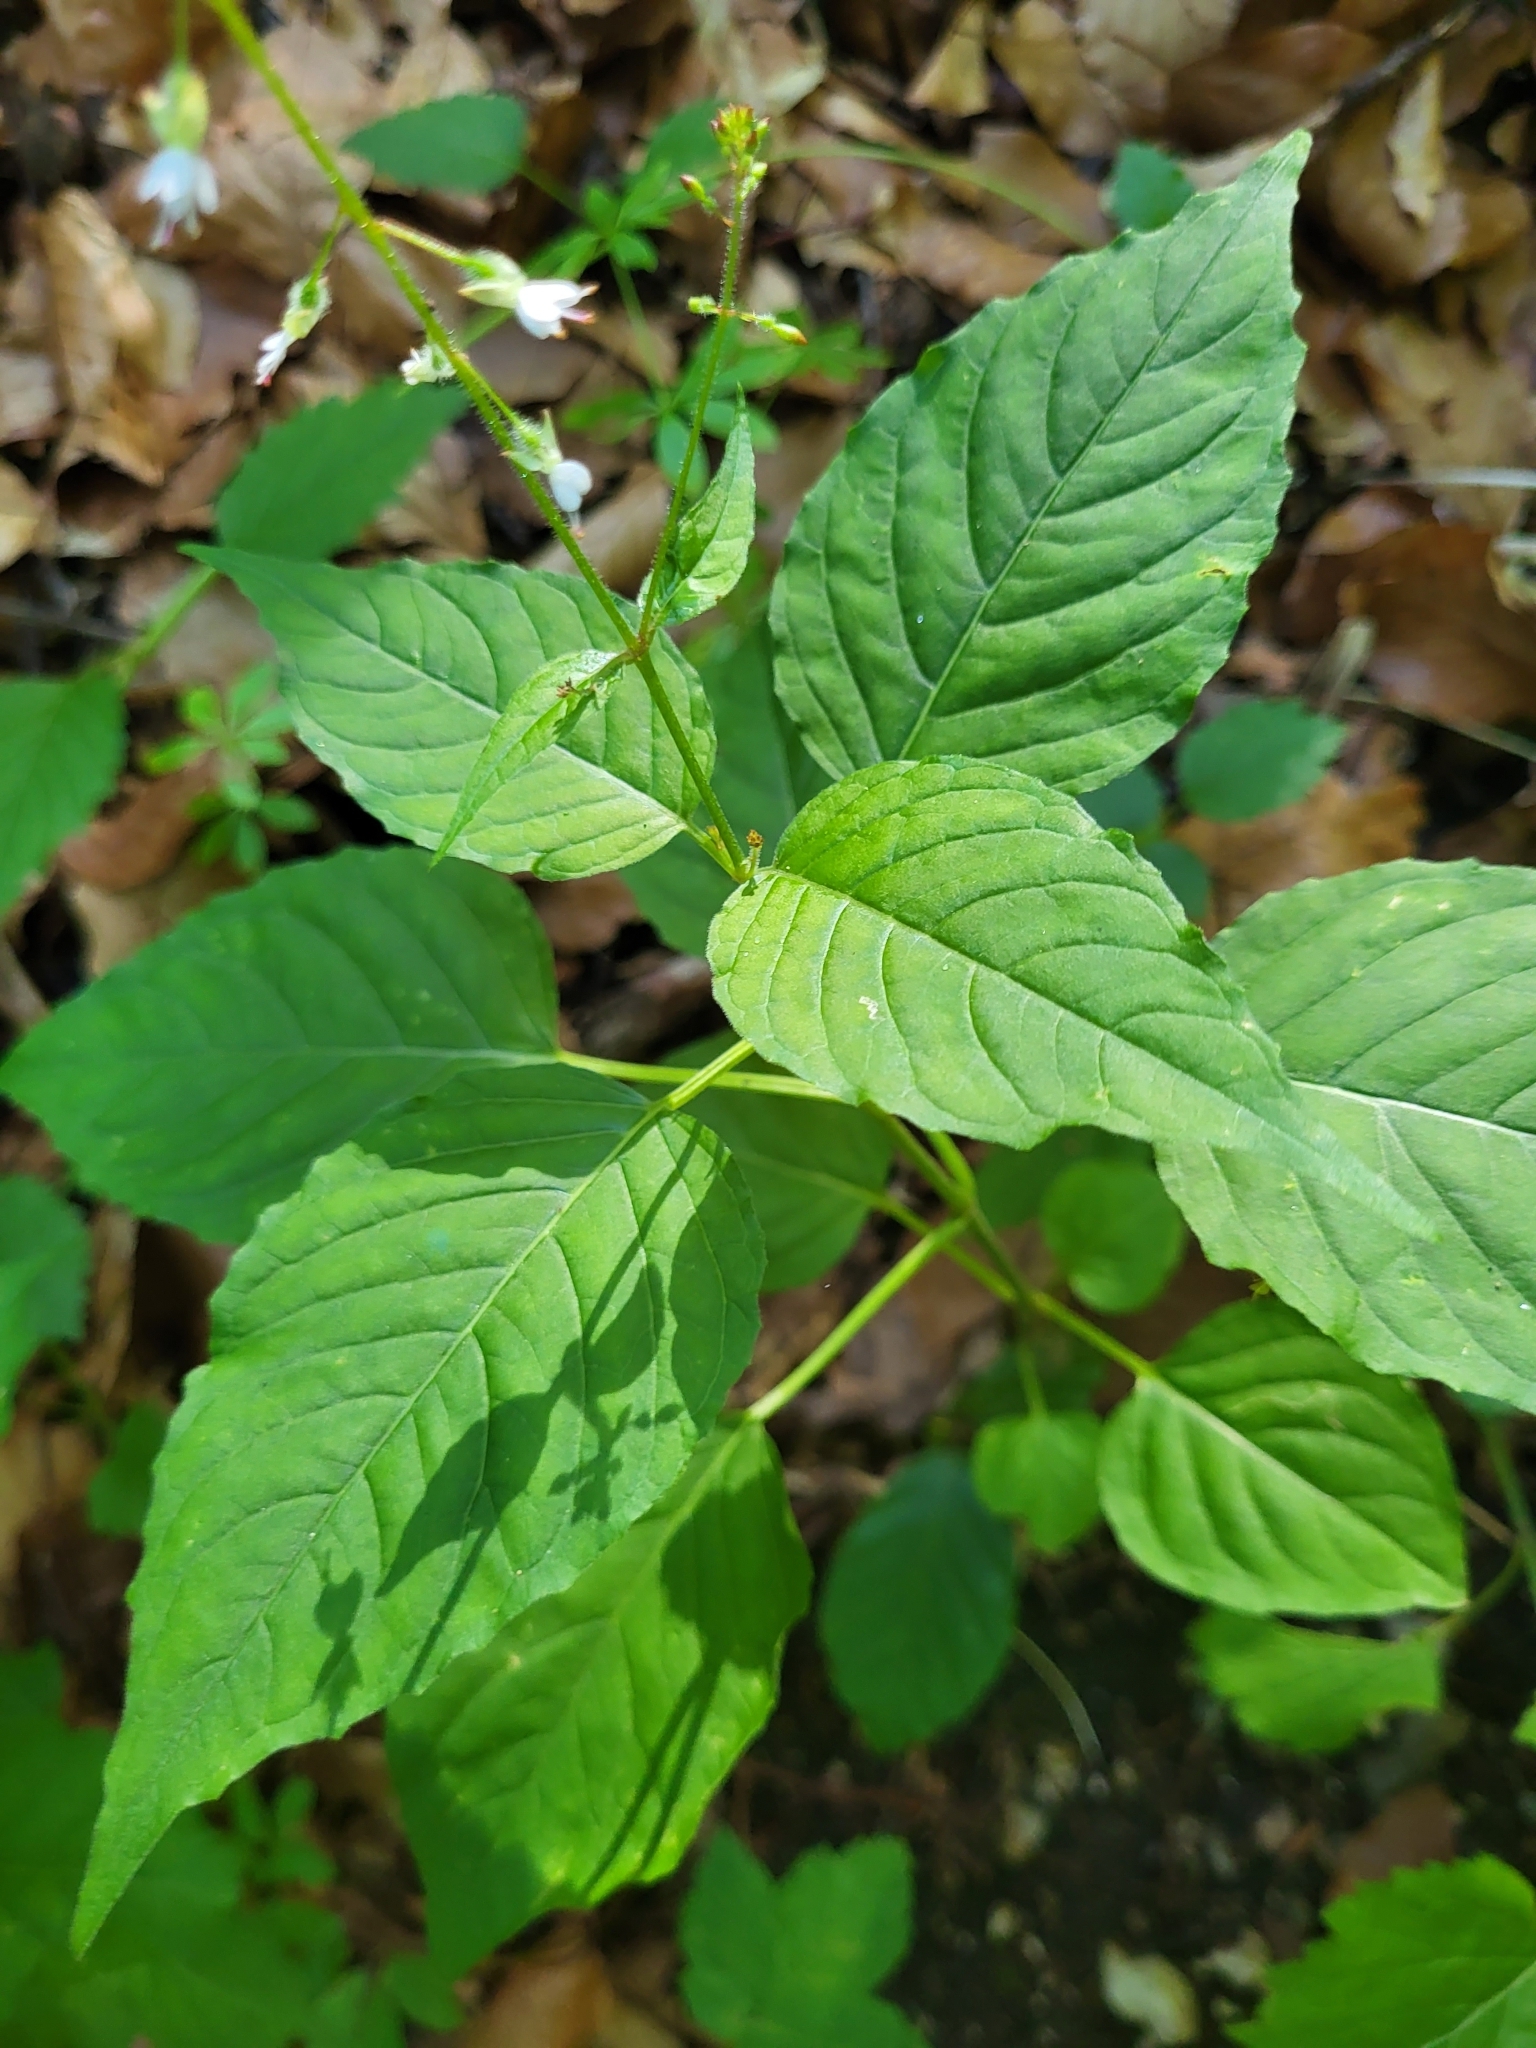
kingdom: Plantae
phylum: Tracheophyta
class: Magnoliopsida
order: Myrtales
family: Onagraceae
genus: Circaea
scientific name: Circaea lutetiana
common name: Enchanter's-nightshade
